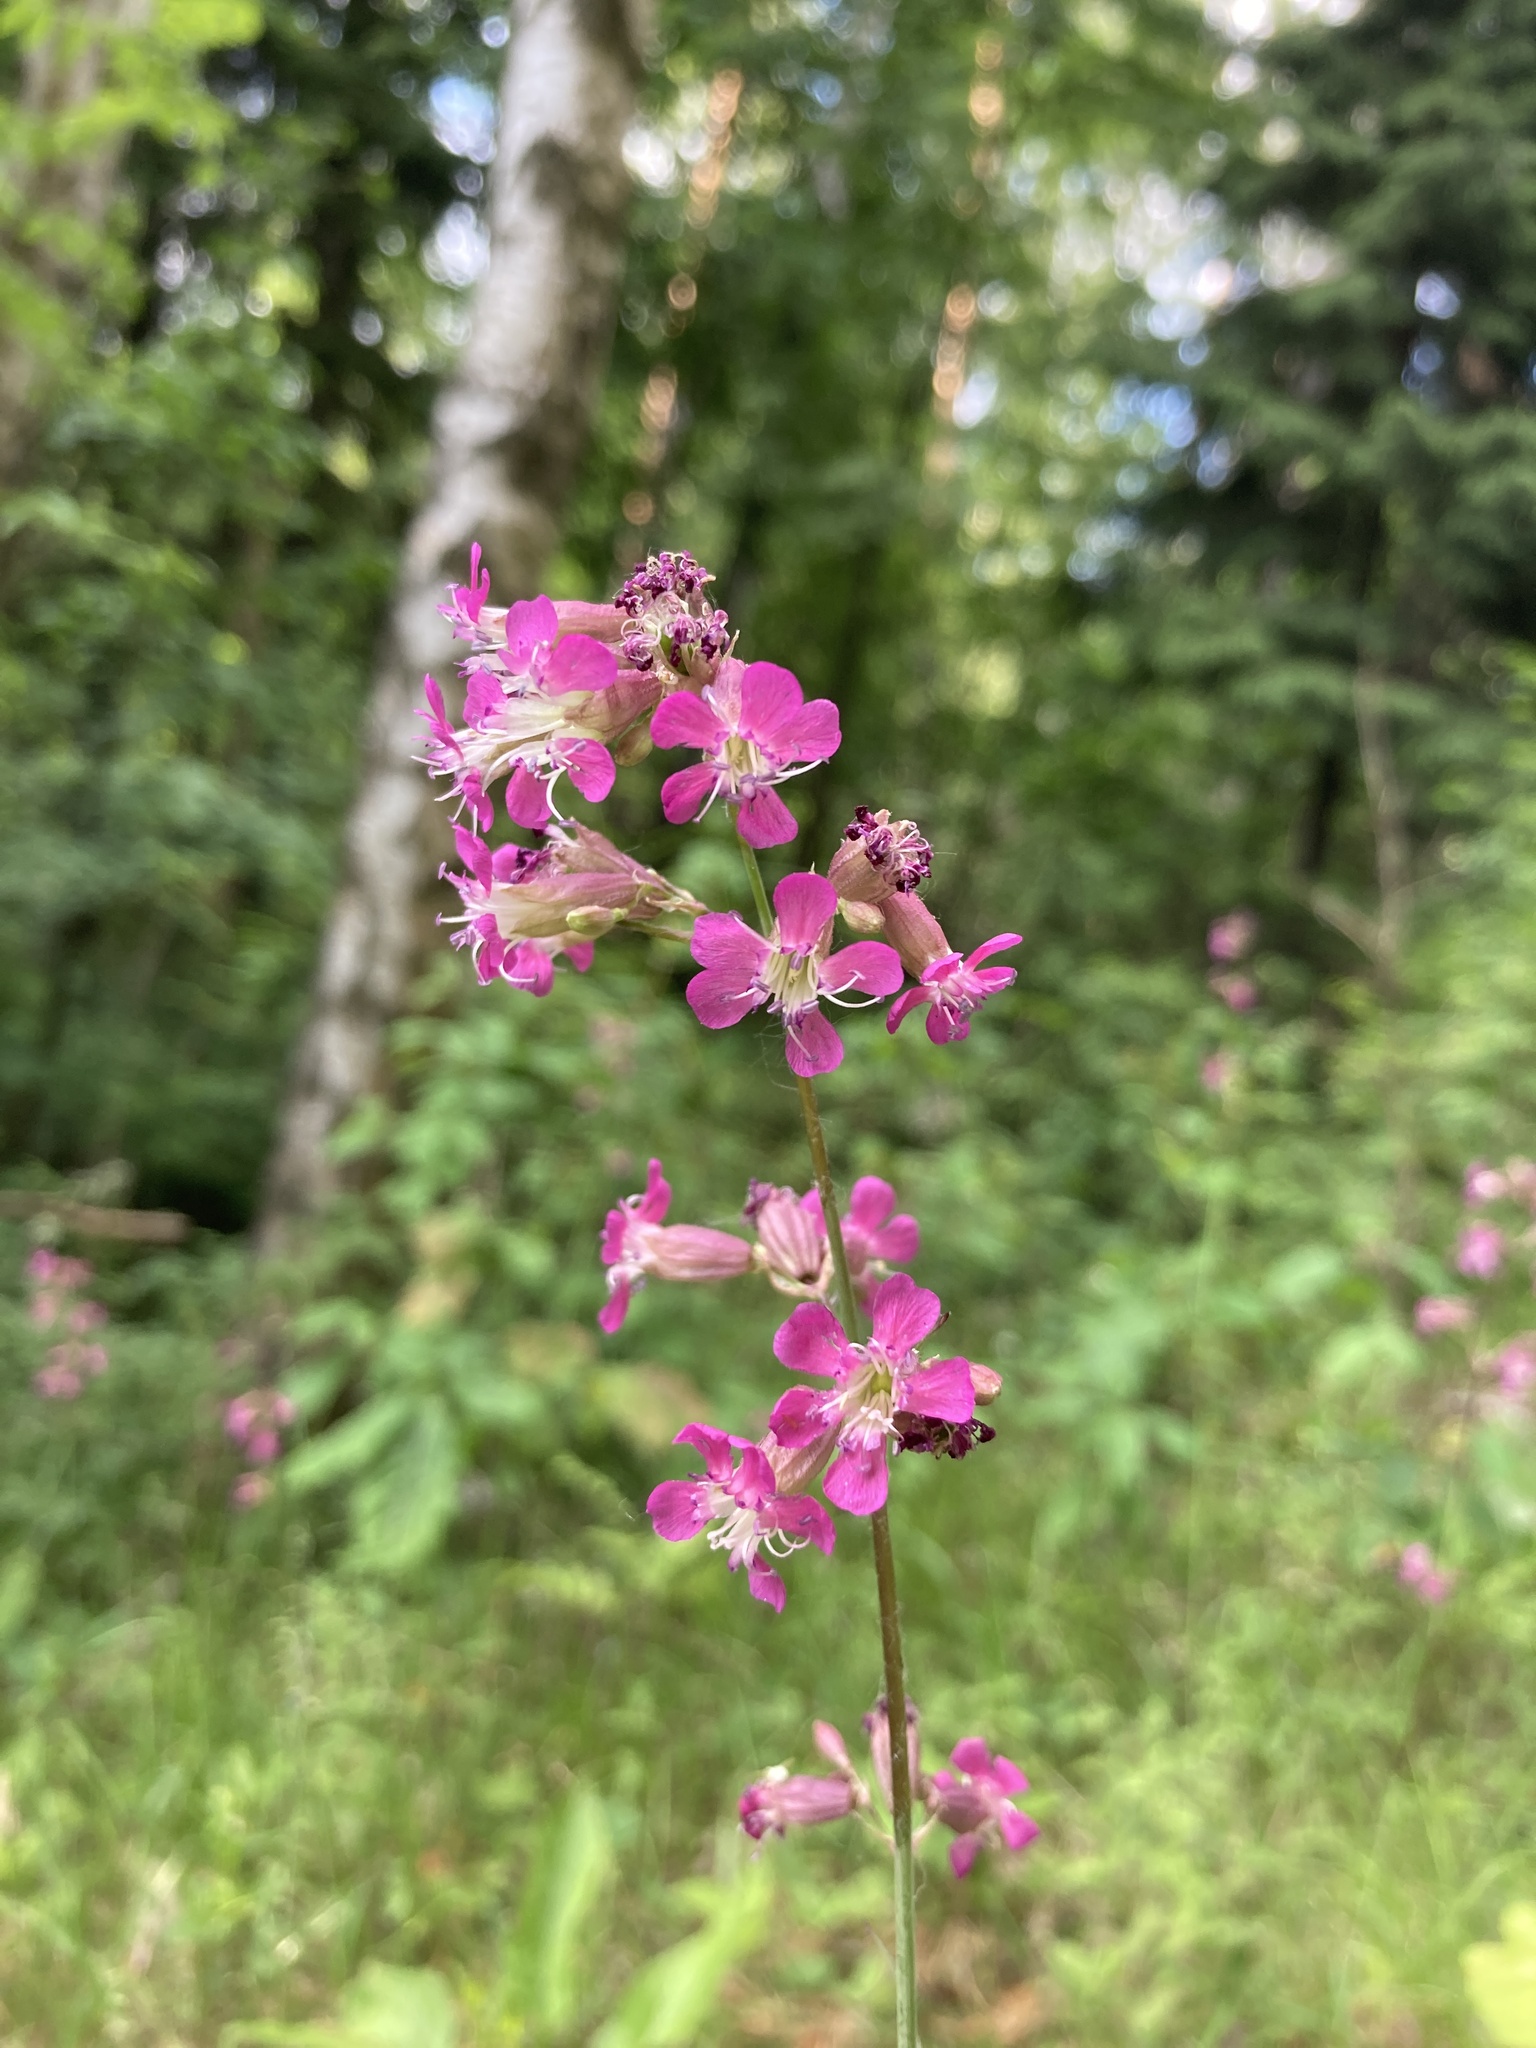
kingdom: Plantae
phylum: Tracheophyta
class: Magnoliopsida
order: Caryophyllales
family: Caryophyllaceae
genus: Viscaria
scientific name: Viscaria vulgaris
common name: Clammy campion
